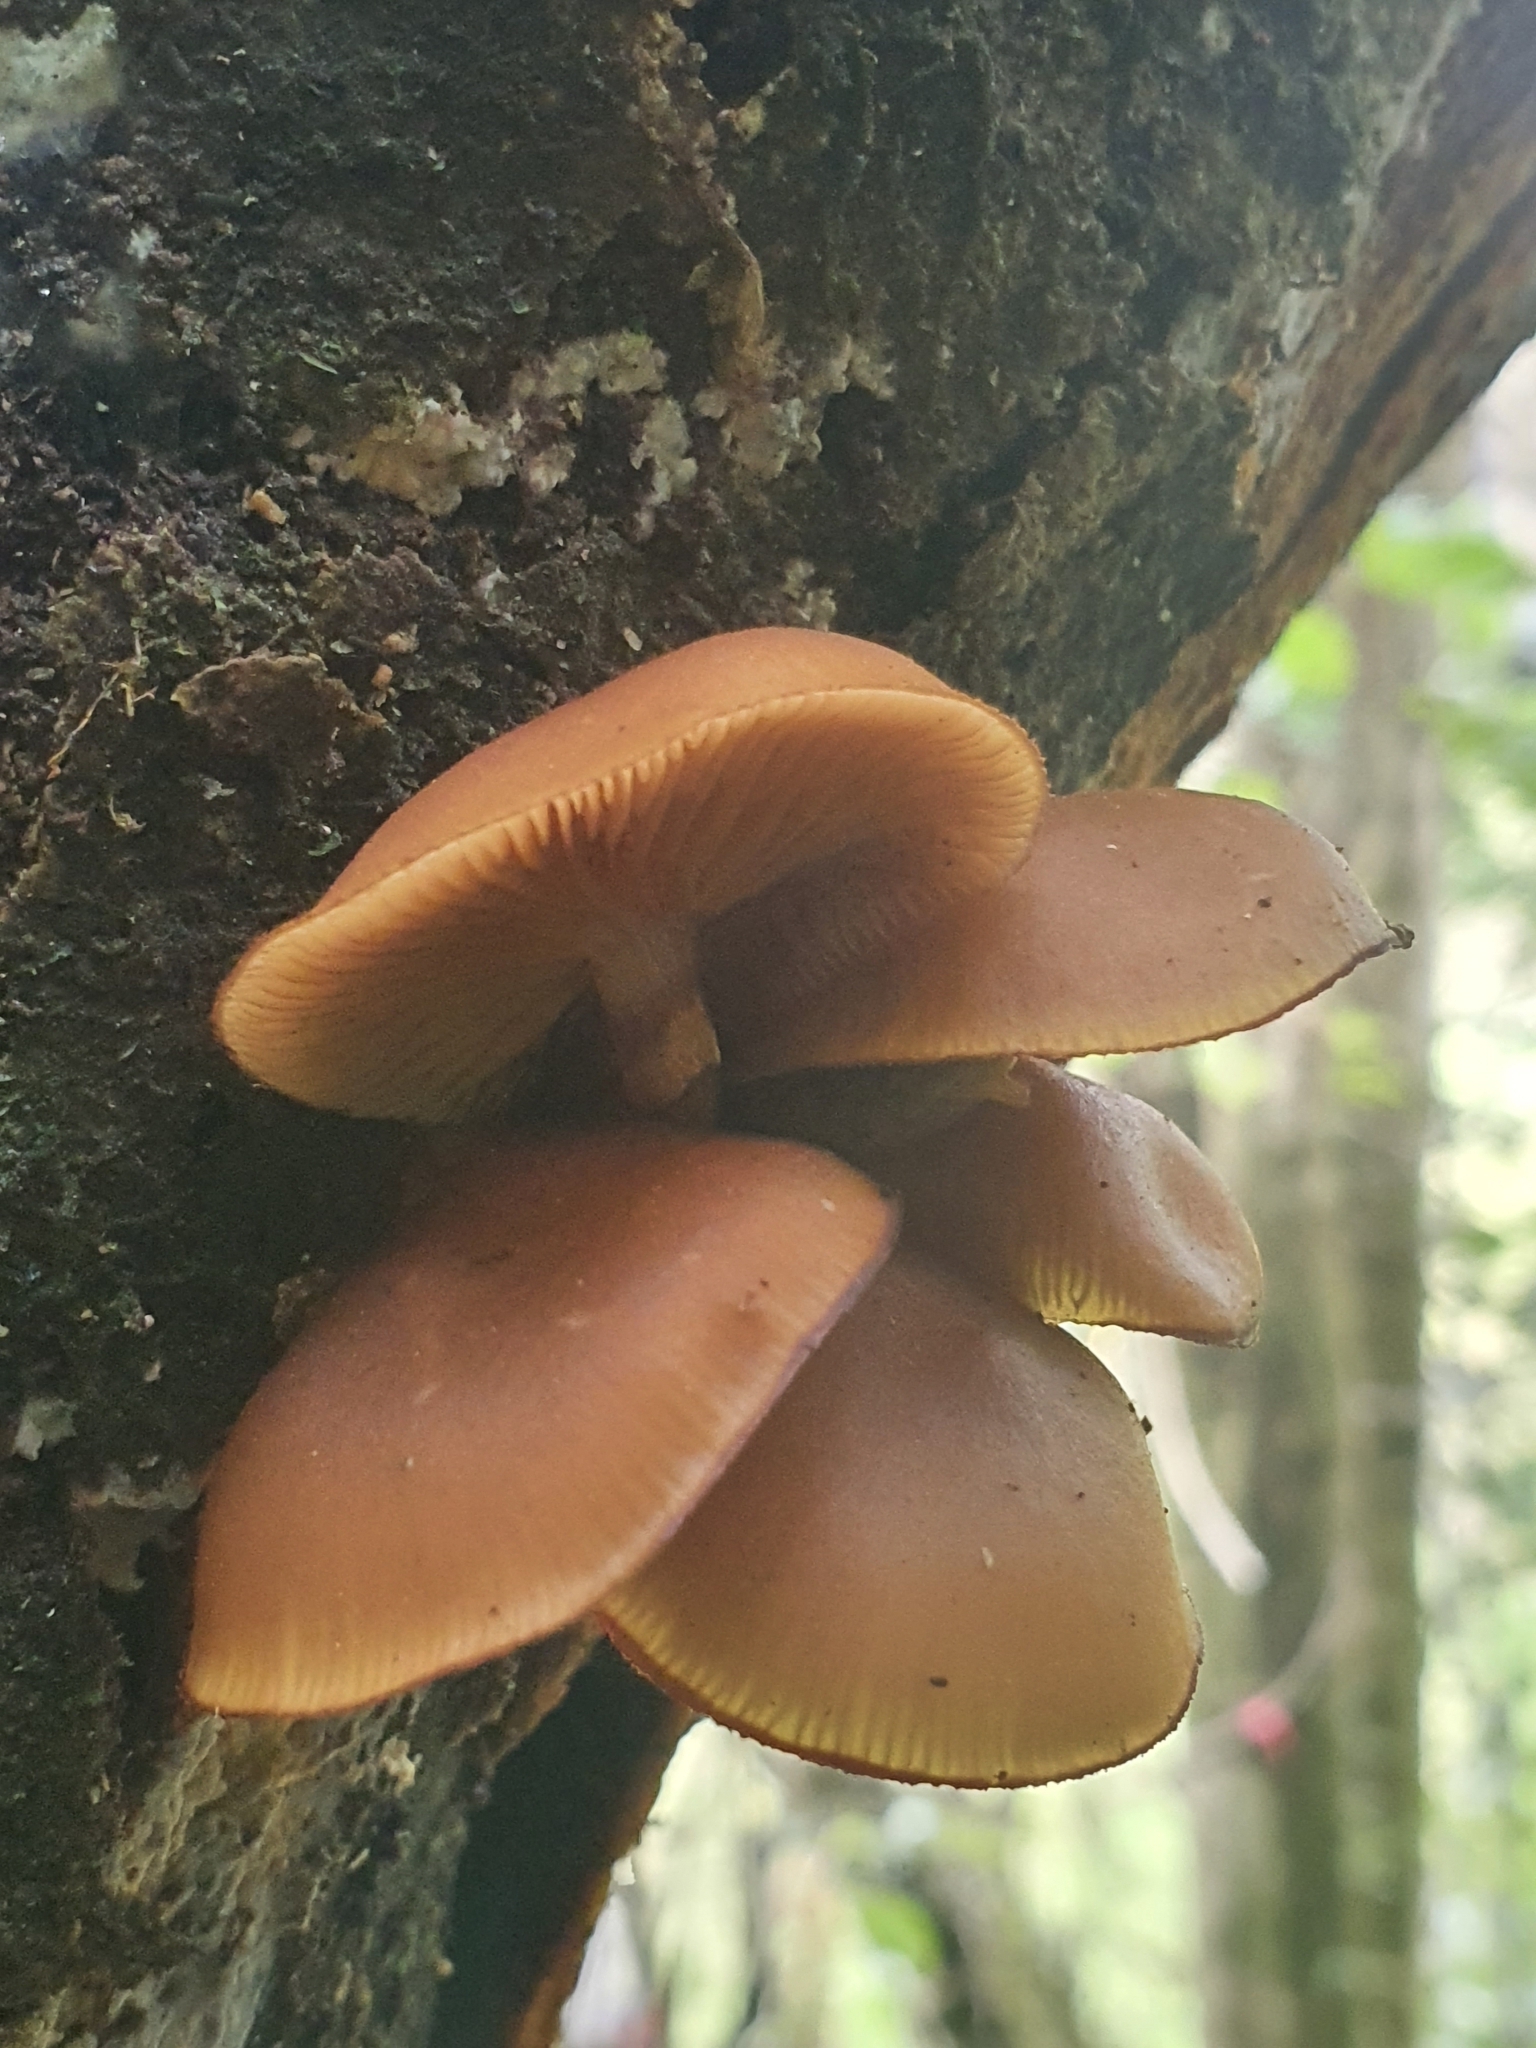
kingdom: Fungi
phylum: Basidiomycota
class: Agaricomycetes
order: Agaricales
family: Physalacriaceae
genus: Armillaria
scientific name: Armillaria novae-zelandiae
